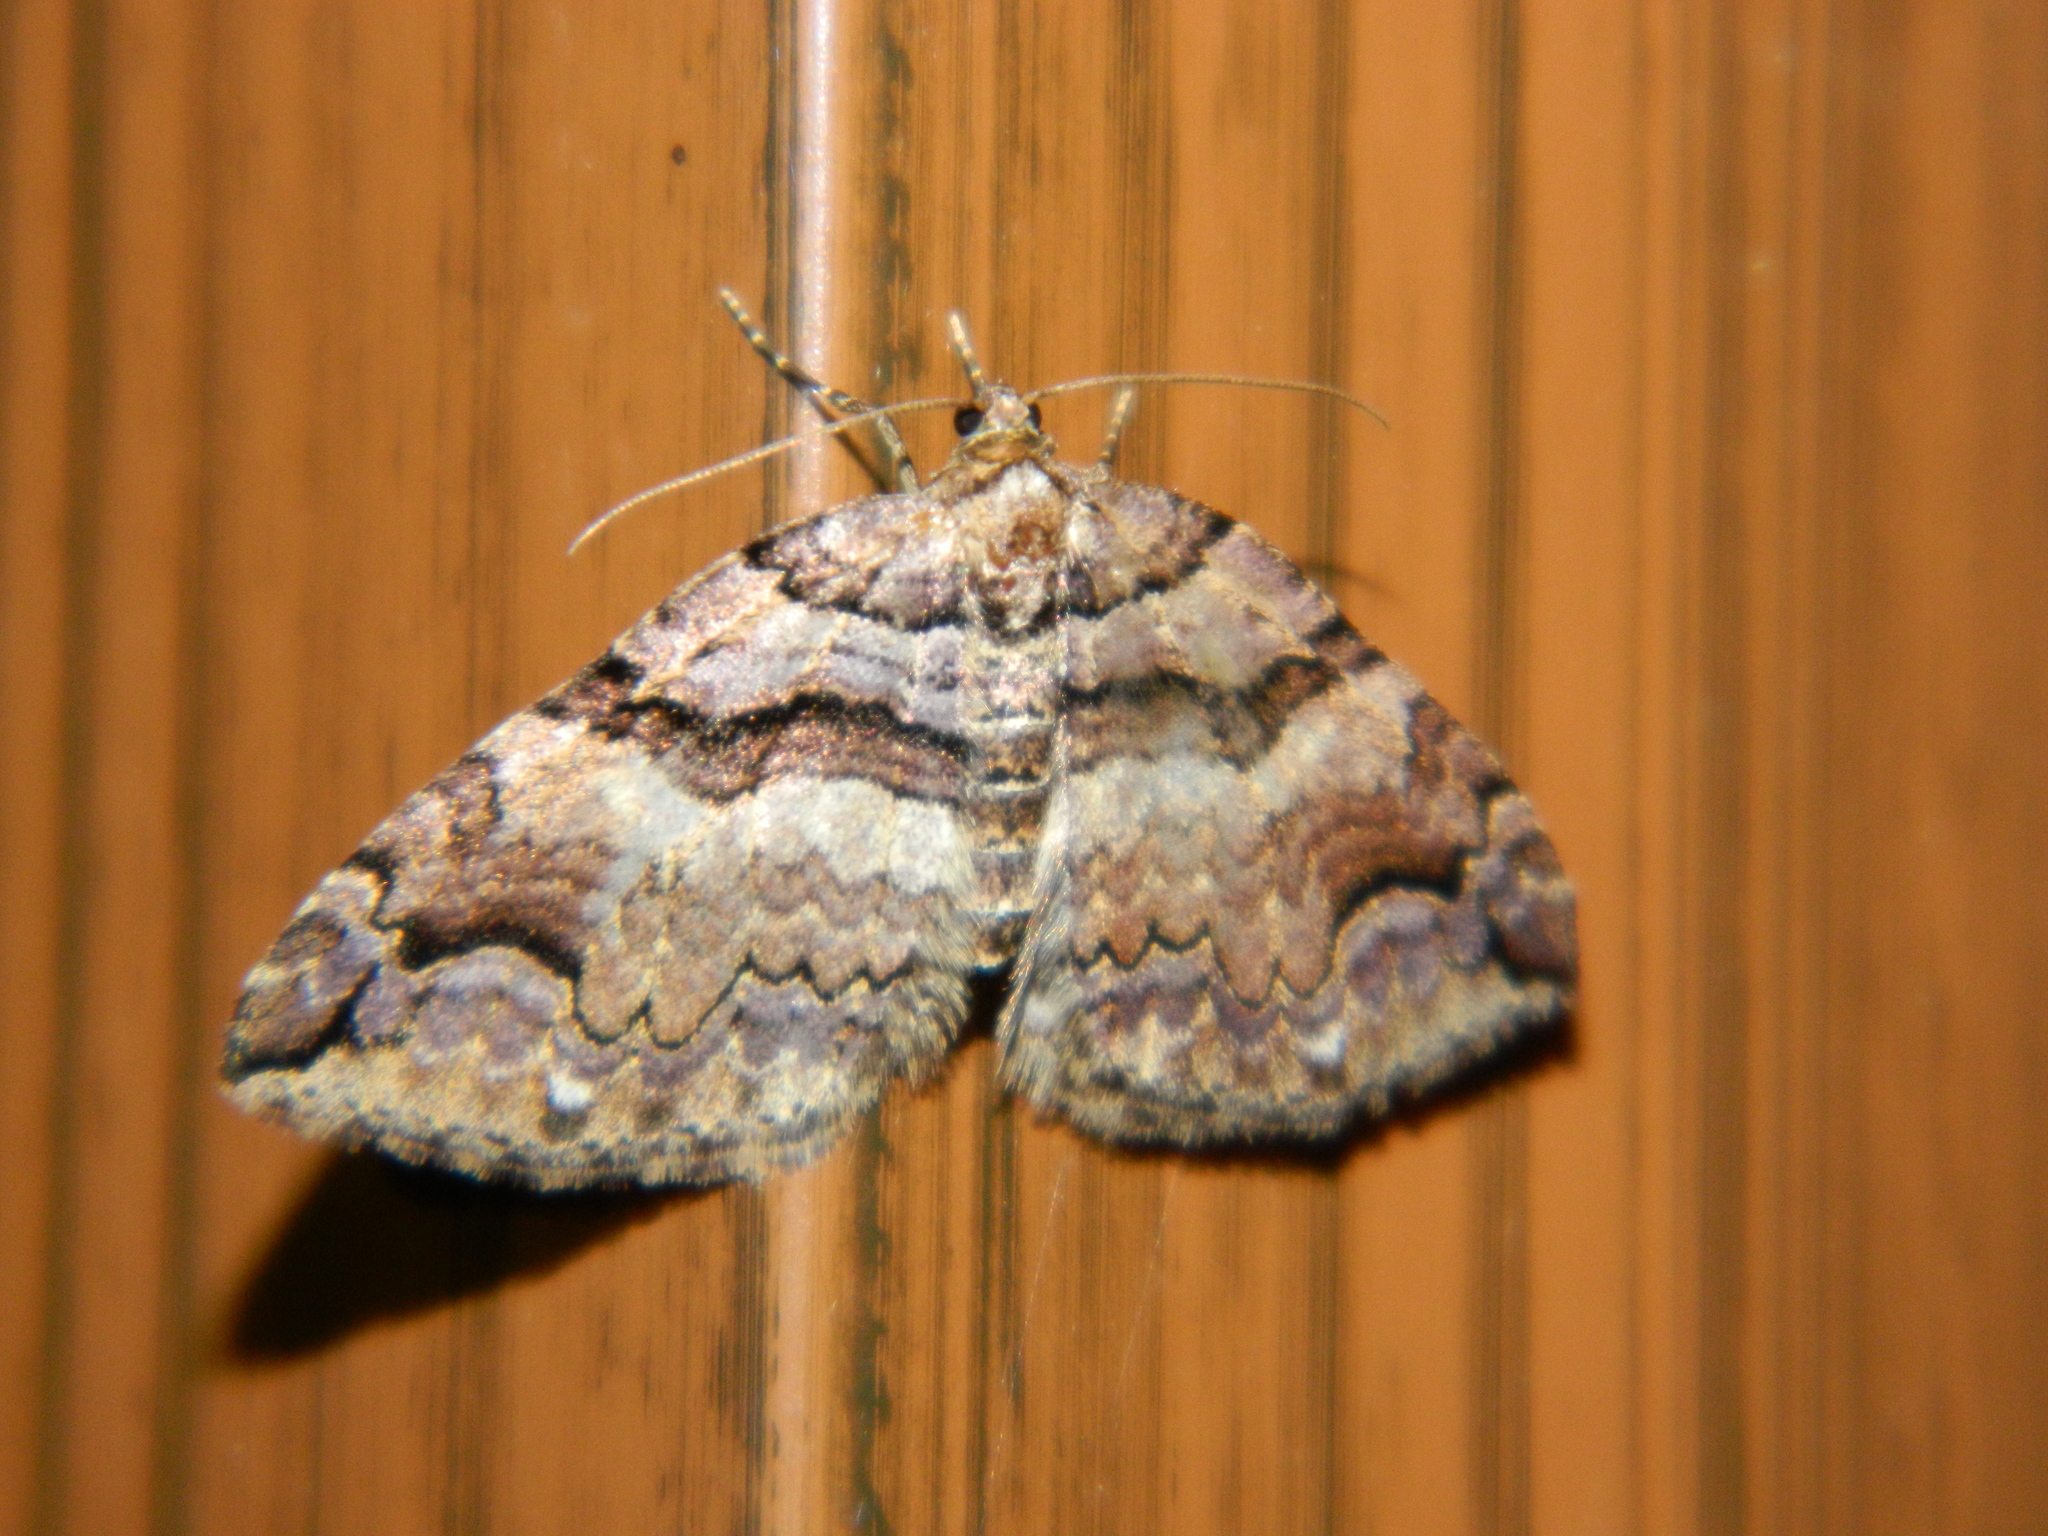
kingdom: Animalia
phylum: Arthropoda
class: Insecta
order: Lepidoptera
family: Geometridae
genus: Anticlea
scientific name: Anticlea vasiliata
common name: Variable carpet
